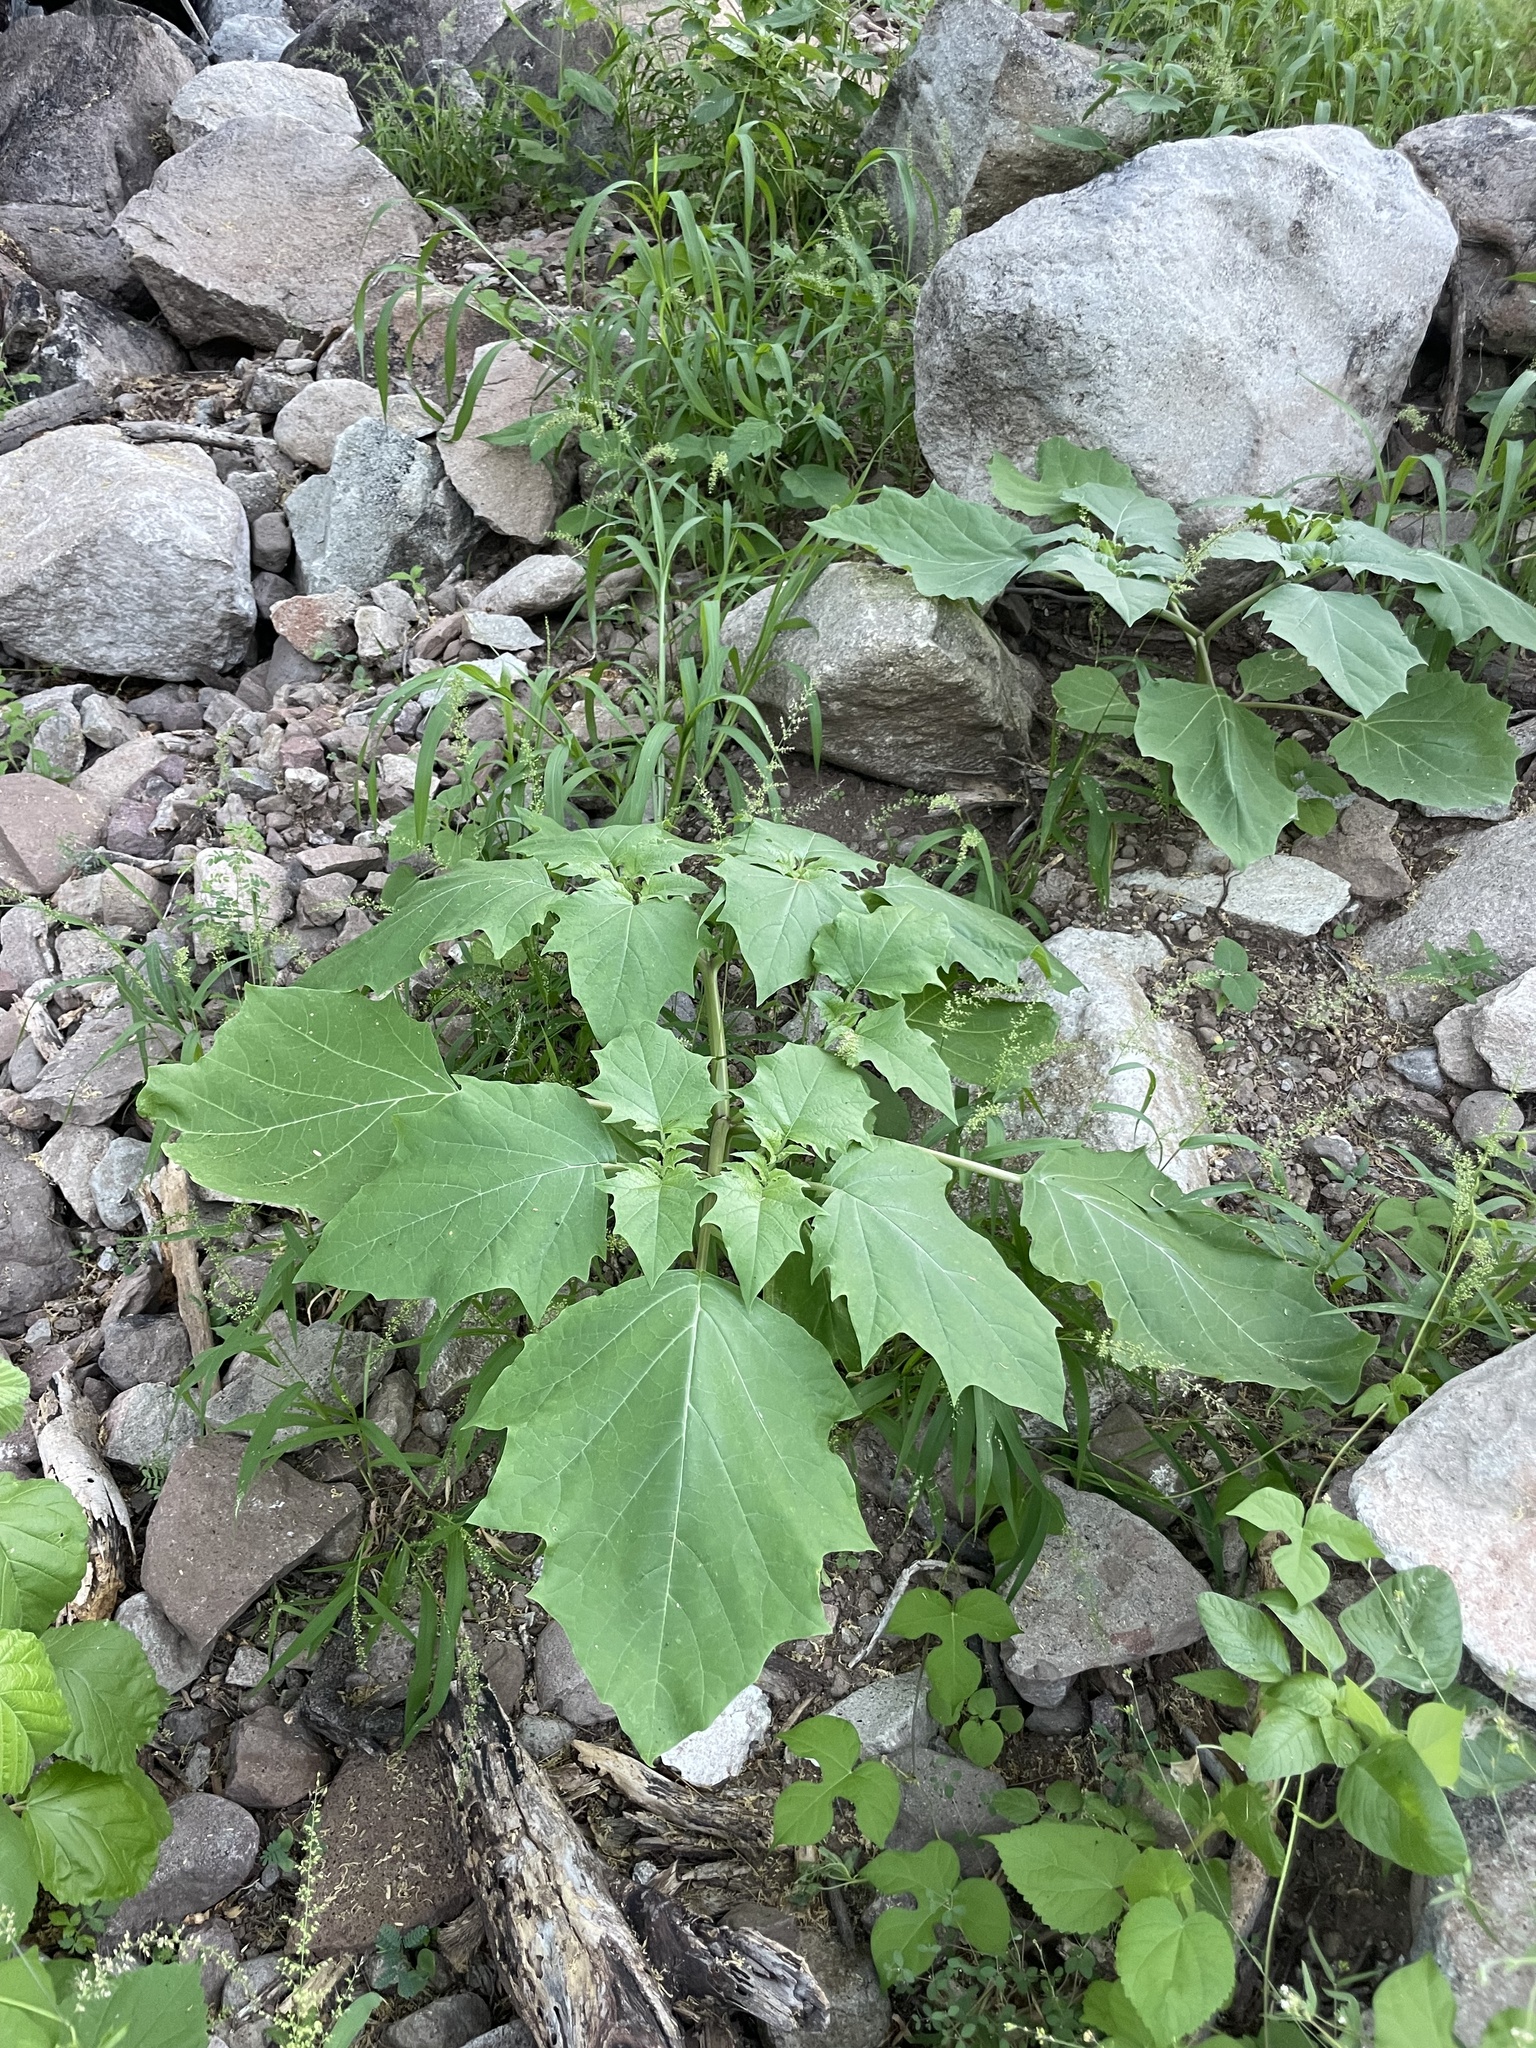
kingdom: Plantae
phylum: Tracheophyta
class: Magnoliopsida
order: Solanales
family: Solanaceae
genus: Datura
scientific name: Datura discolor
